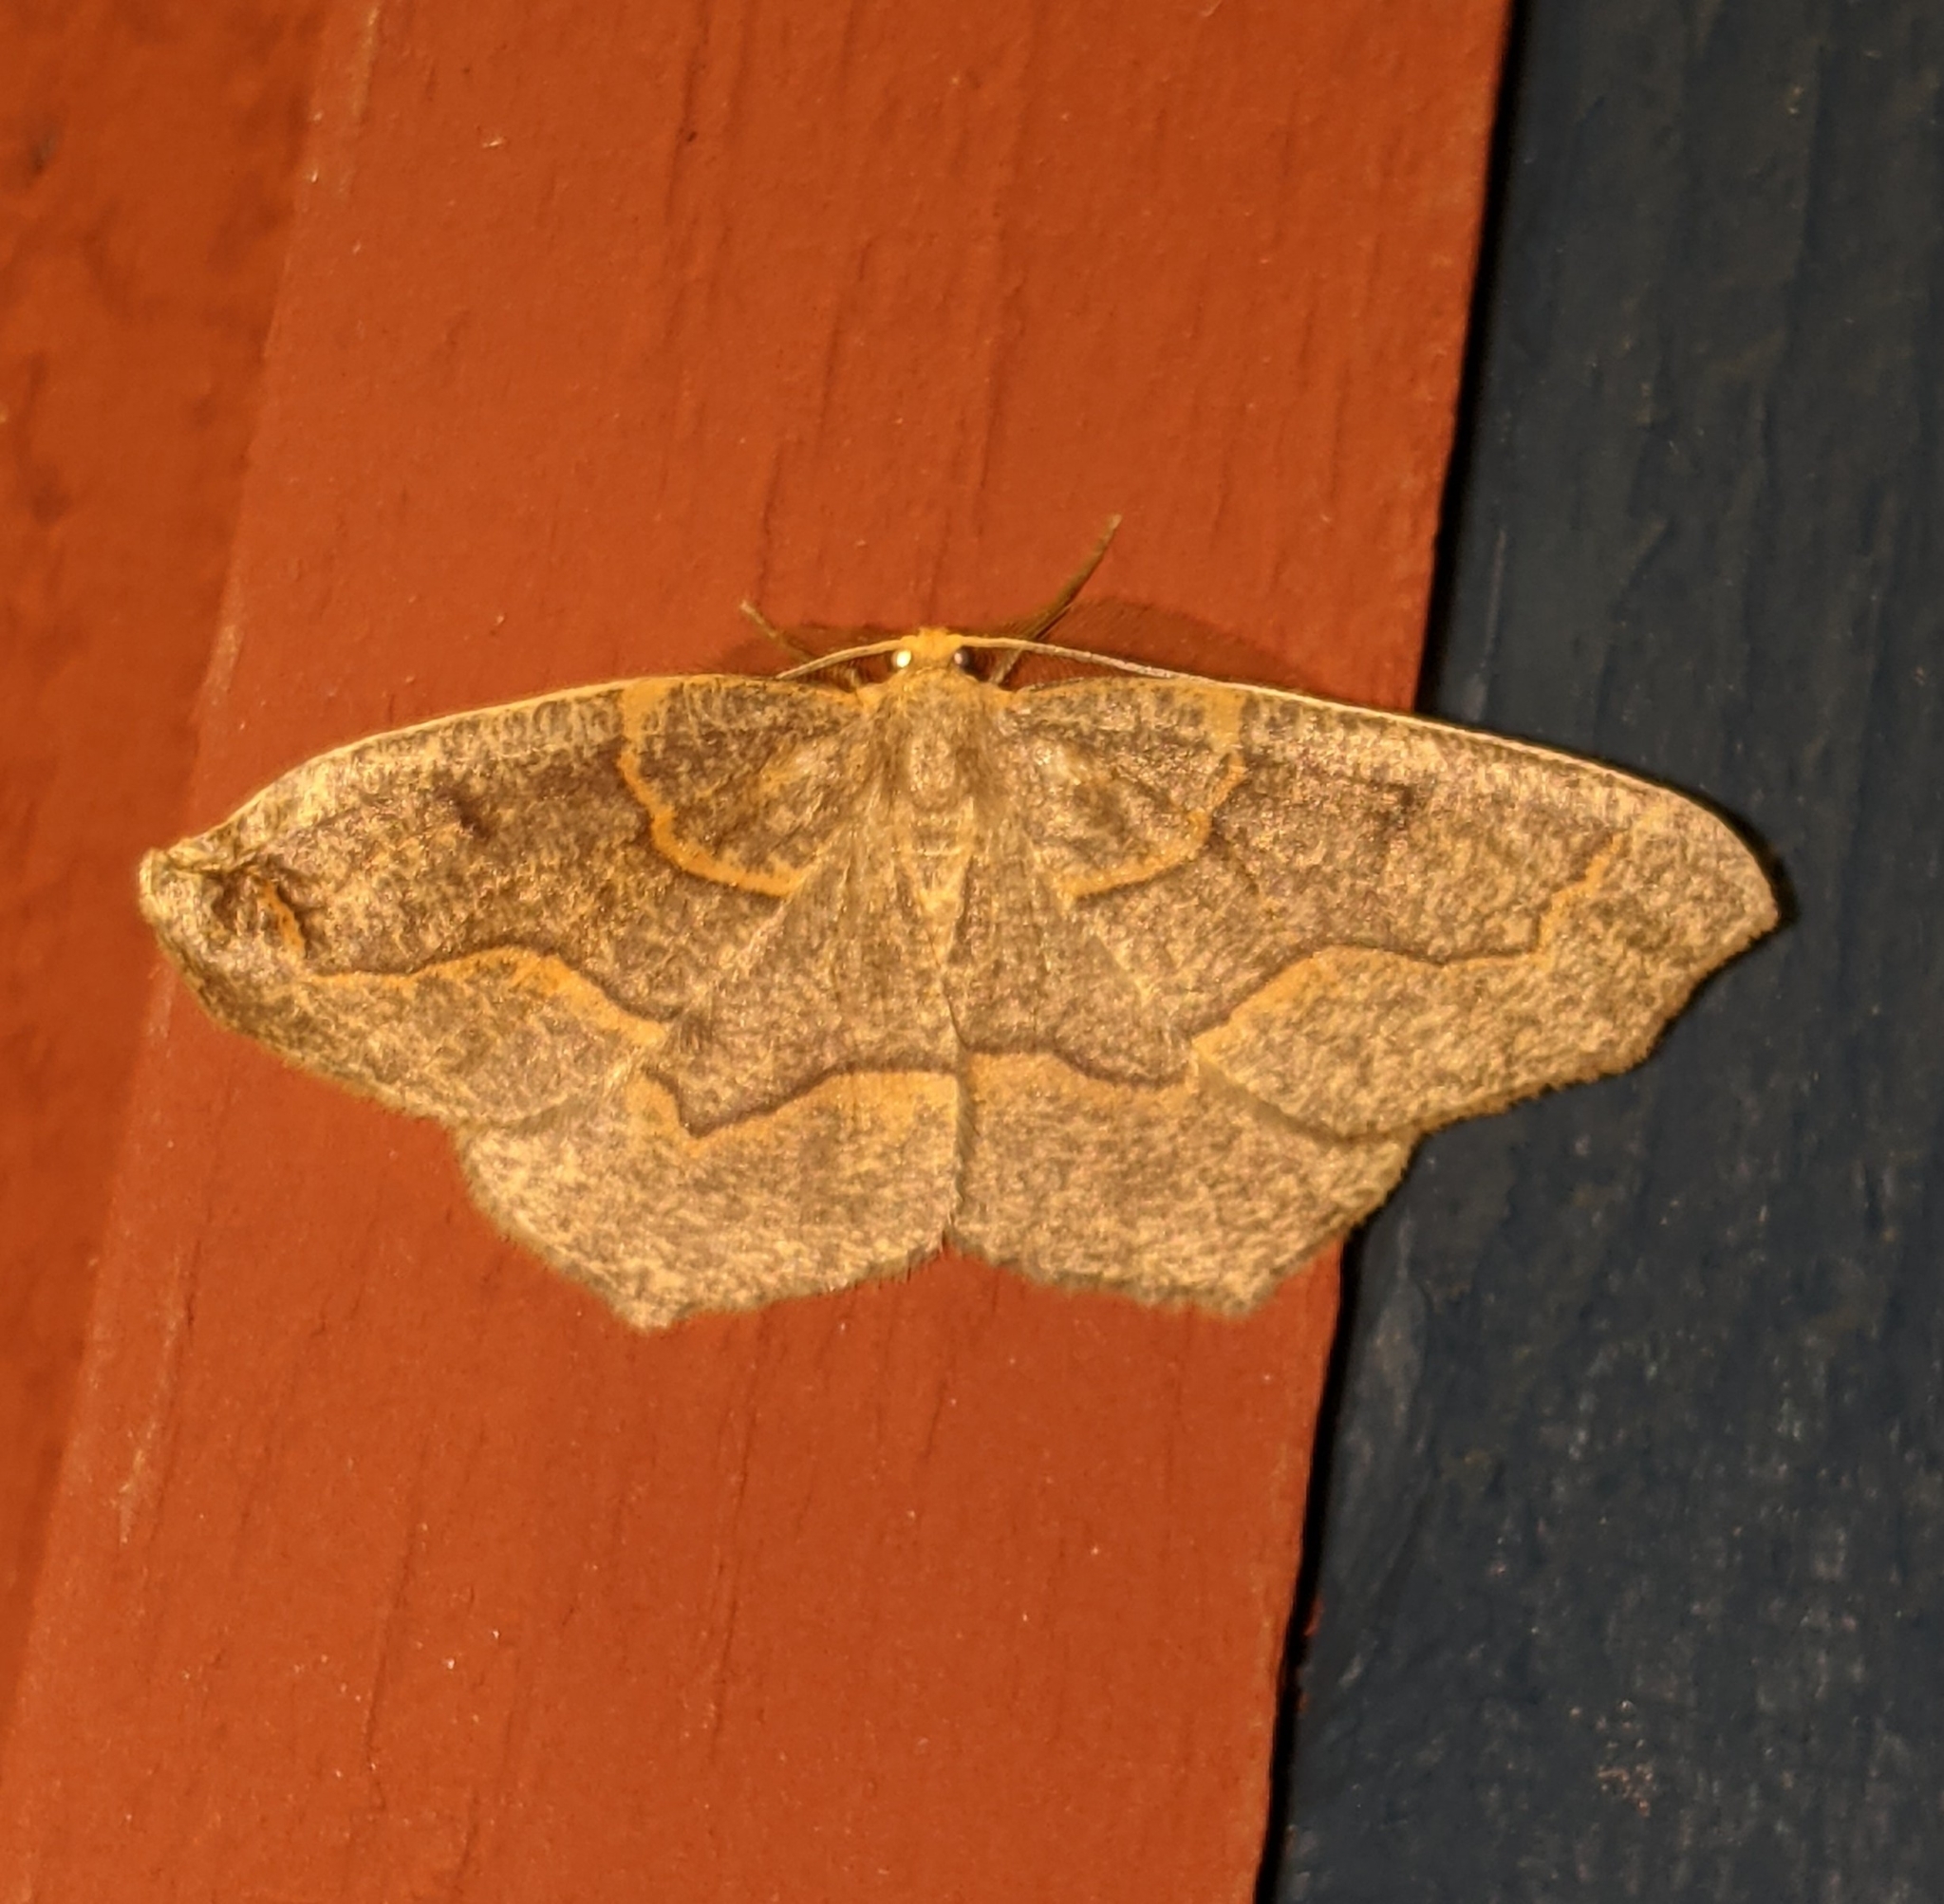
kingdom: Animalia
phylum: Arthropoda
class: Insecta
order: Lepidoptera
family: Geometridae
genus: Lambdina
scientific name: Lambdina fiscellaria
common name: Hemlock looper
